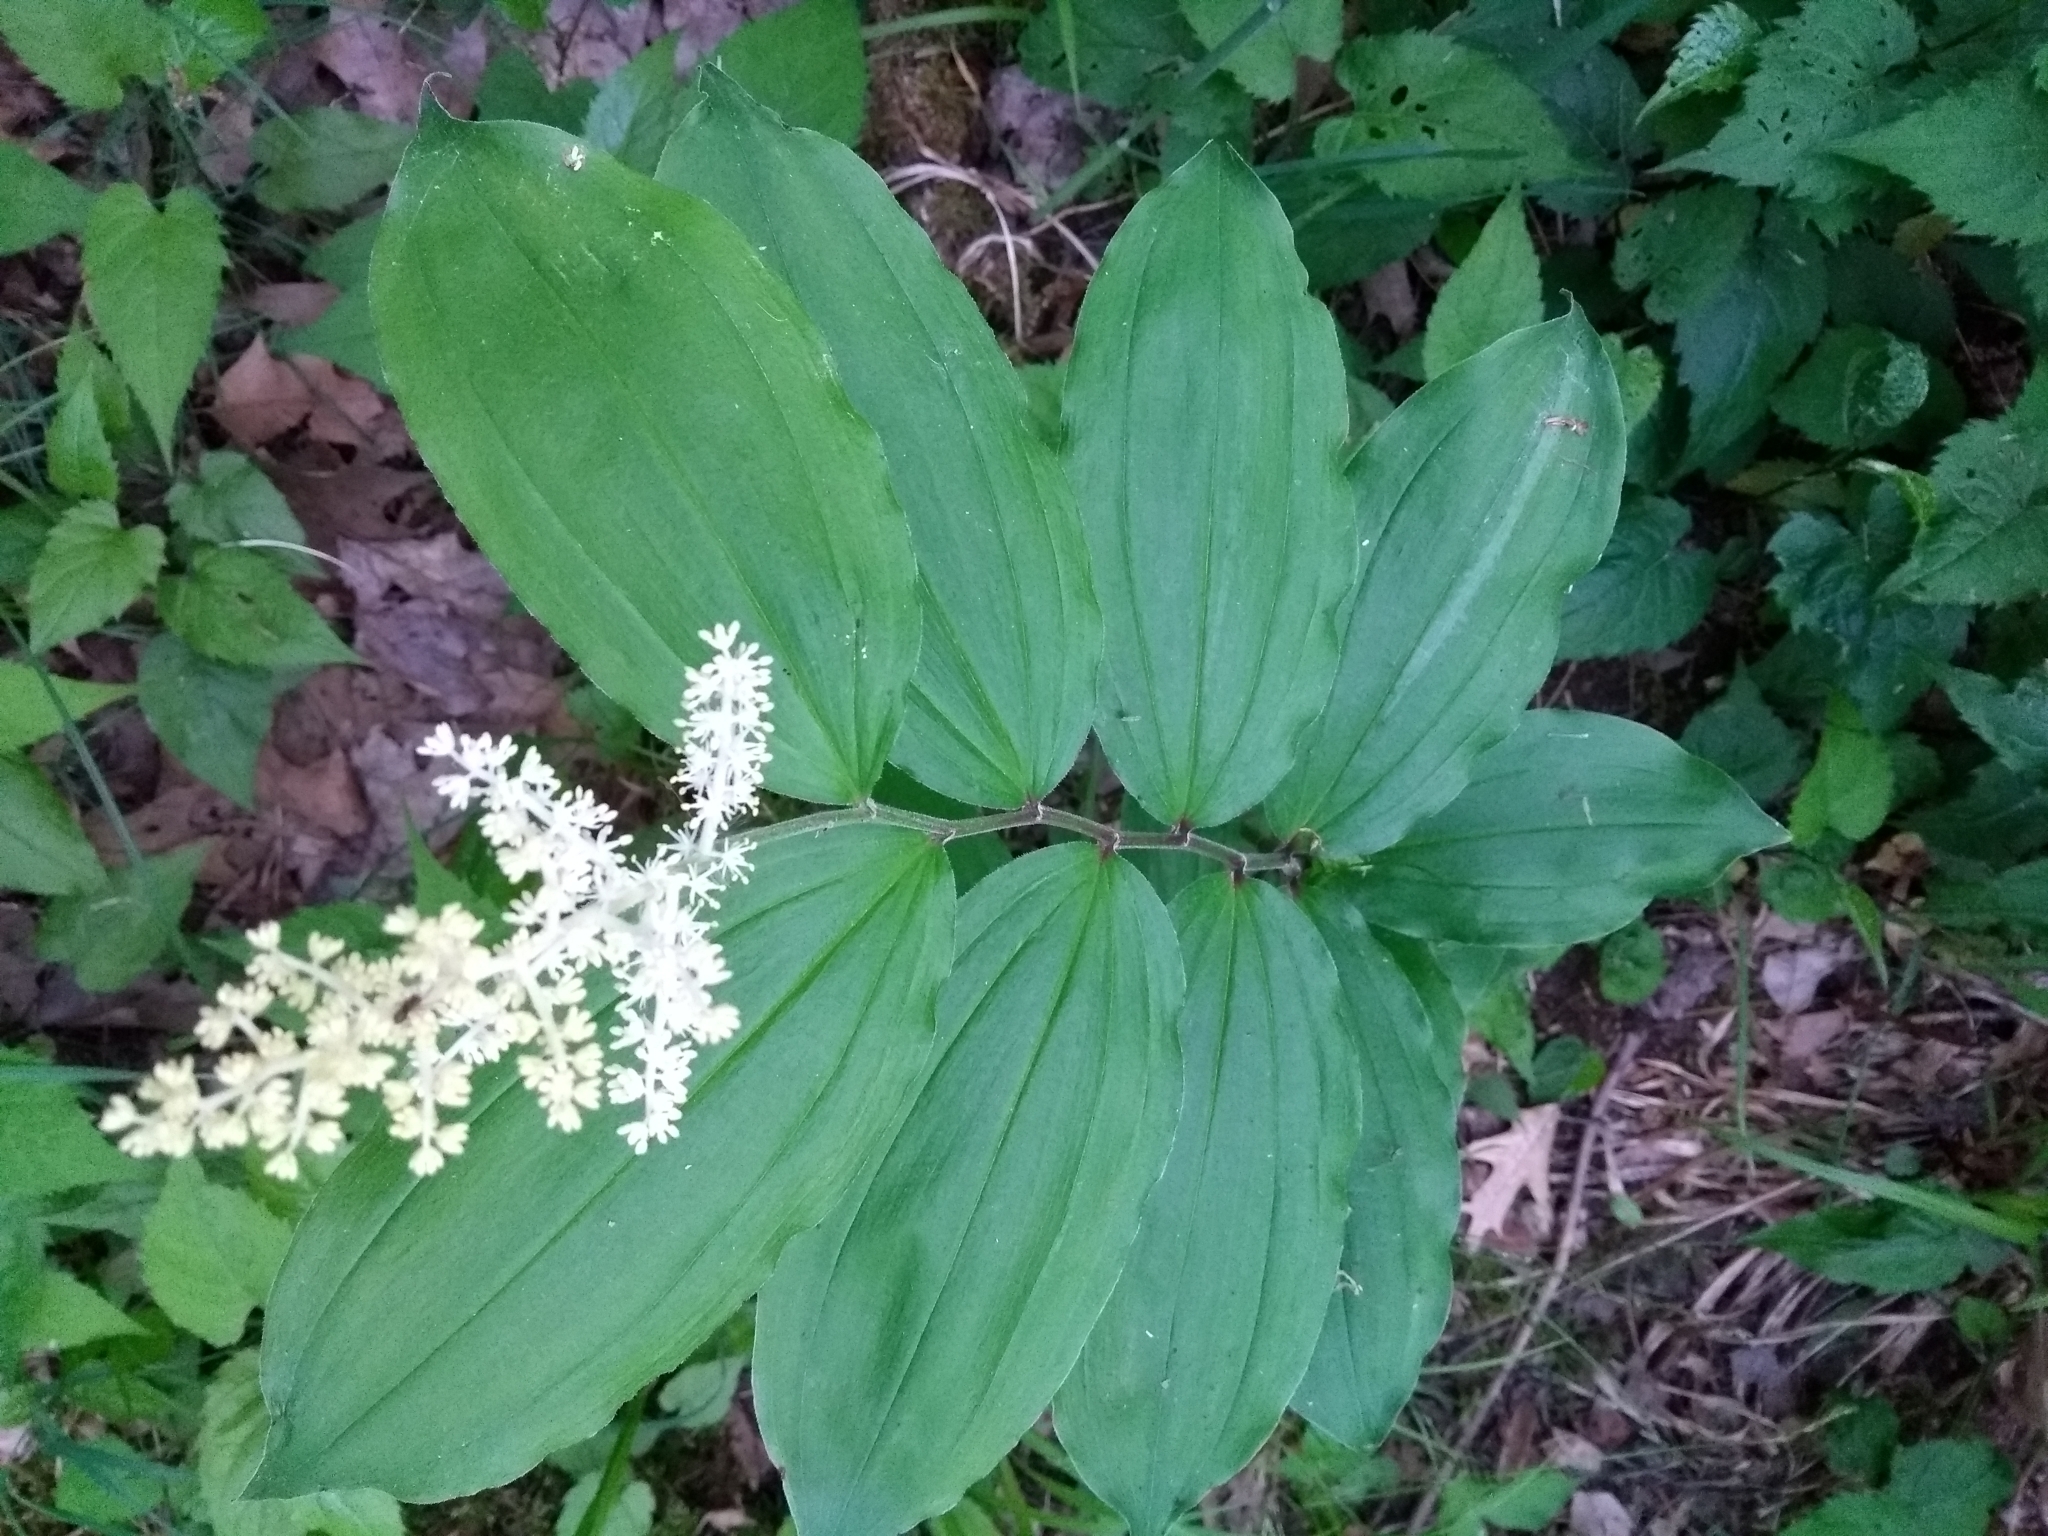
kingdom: Plantae
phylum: Tracheophyta
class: Liliopsida
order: Asparagales
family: Asparagaceae
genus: Maianthemum
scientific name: Maianthemum racemosum
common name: False spikenard
